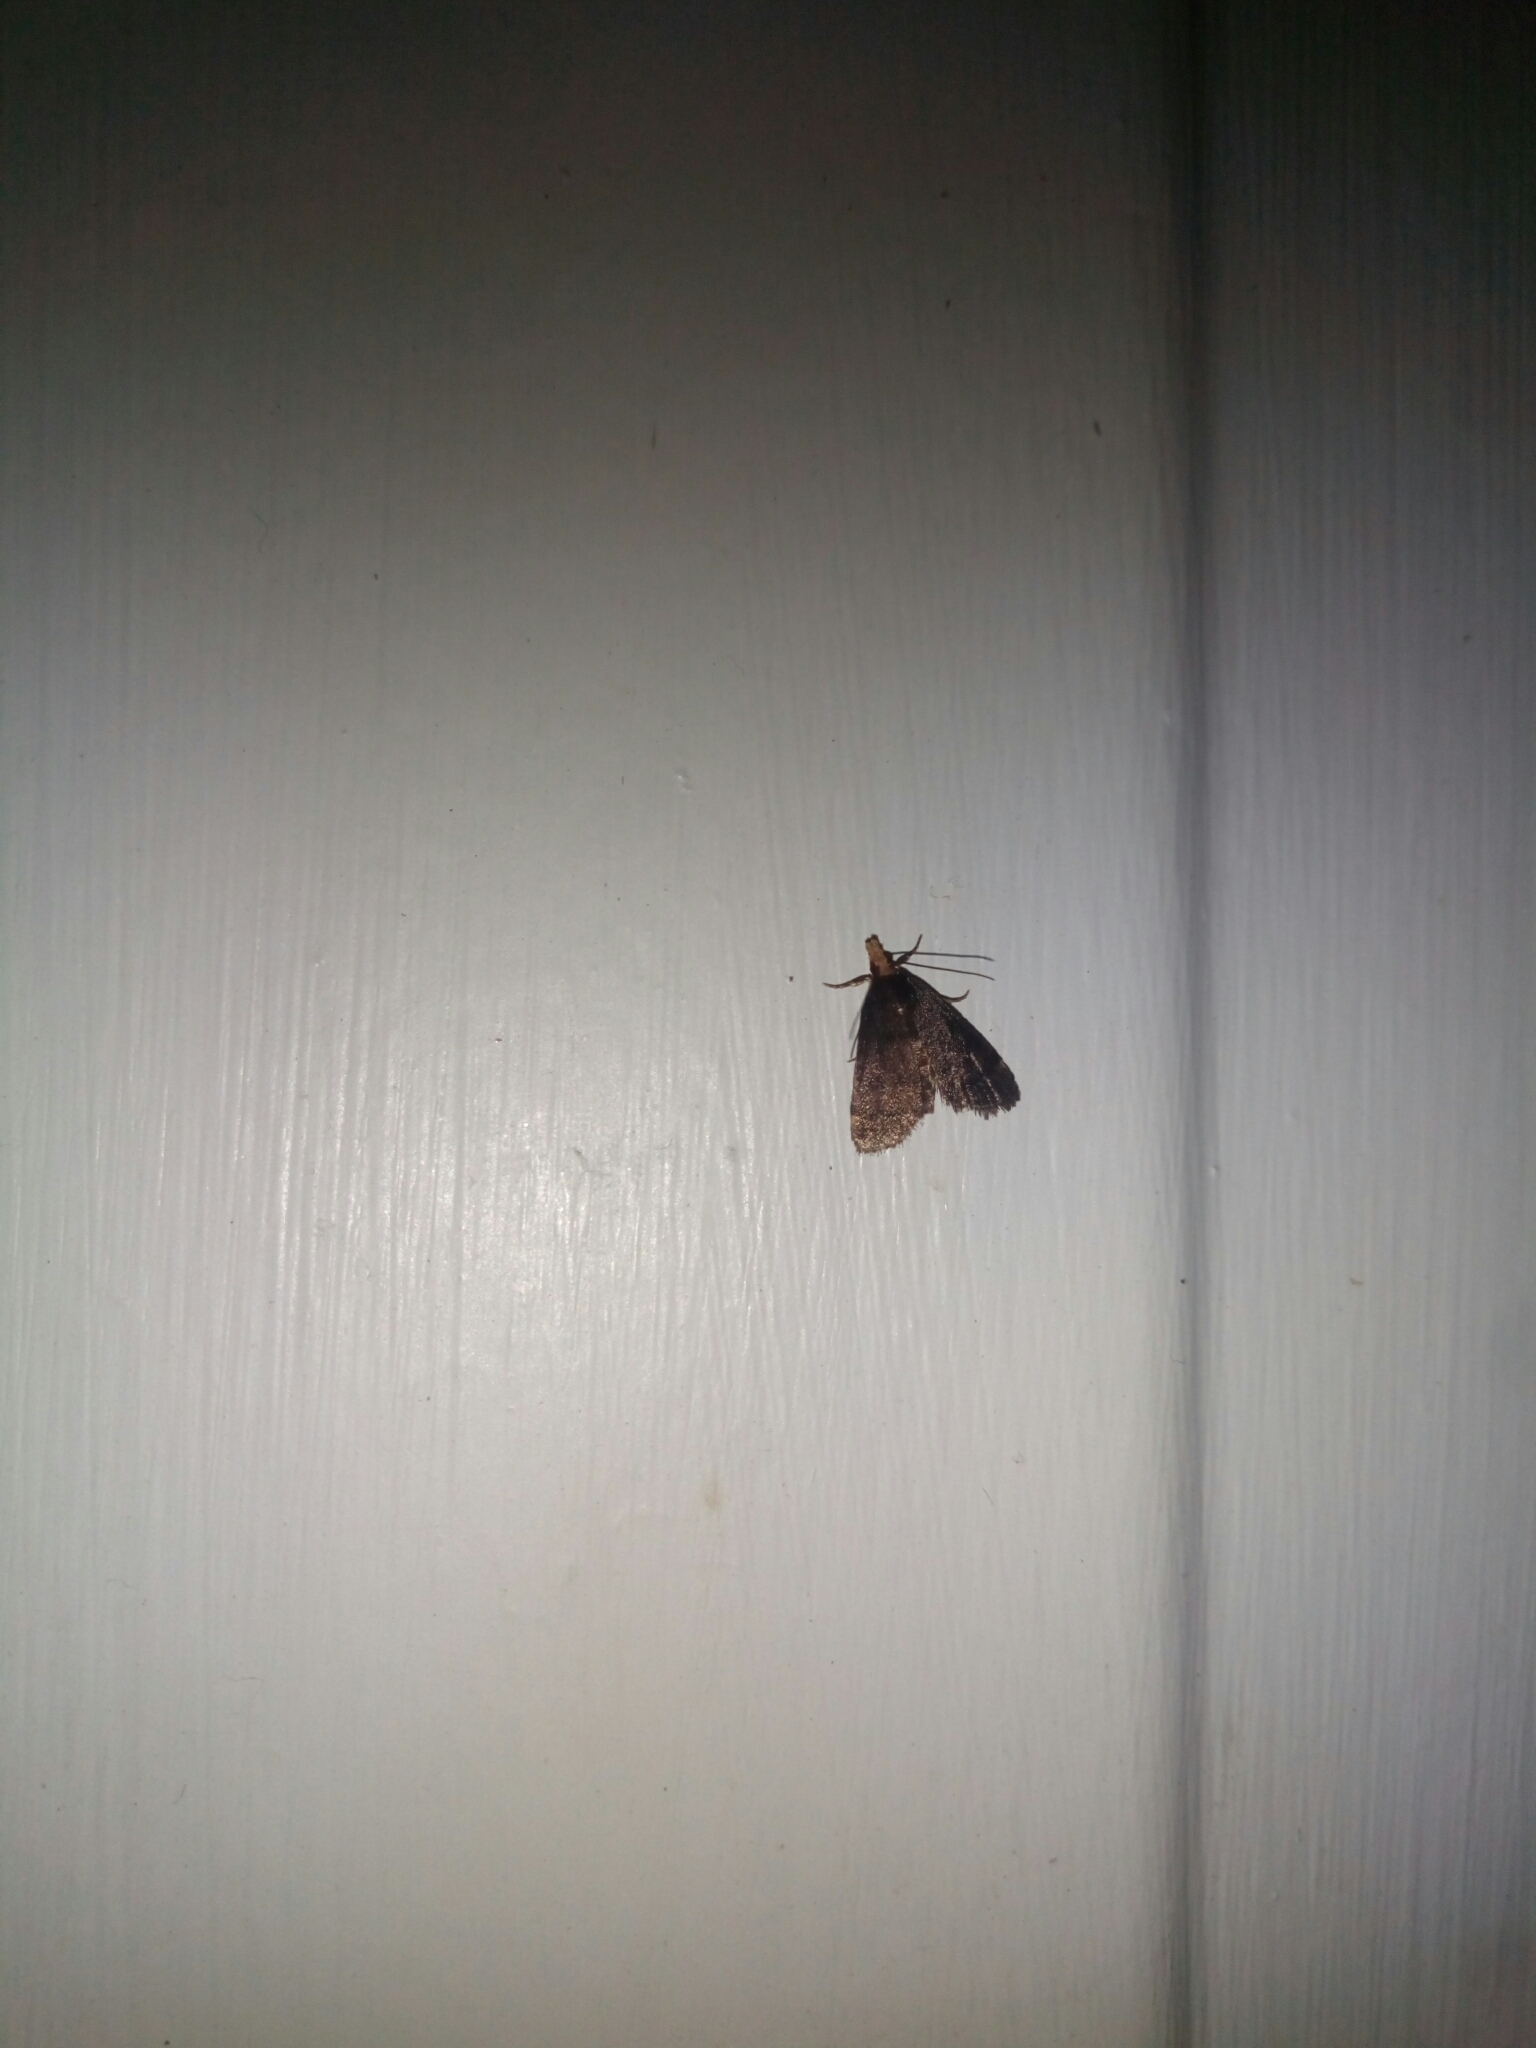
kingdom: Animalia
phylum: Arthropoda
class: Insecta
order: Lepidoptera
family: Crambidae
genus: Pyrausta
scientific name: Pyrausta merrickalis
